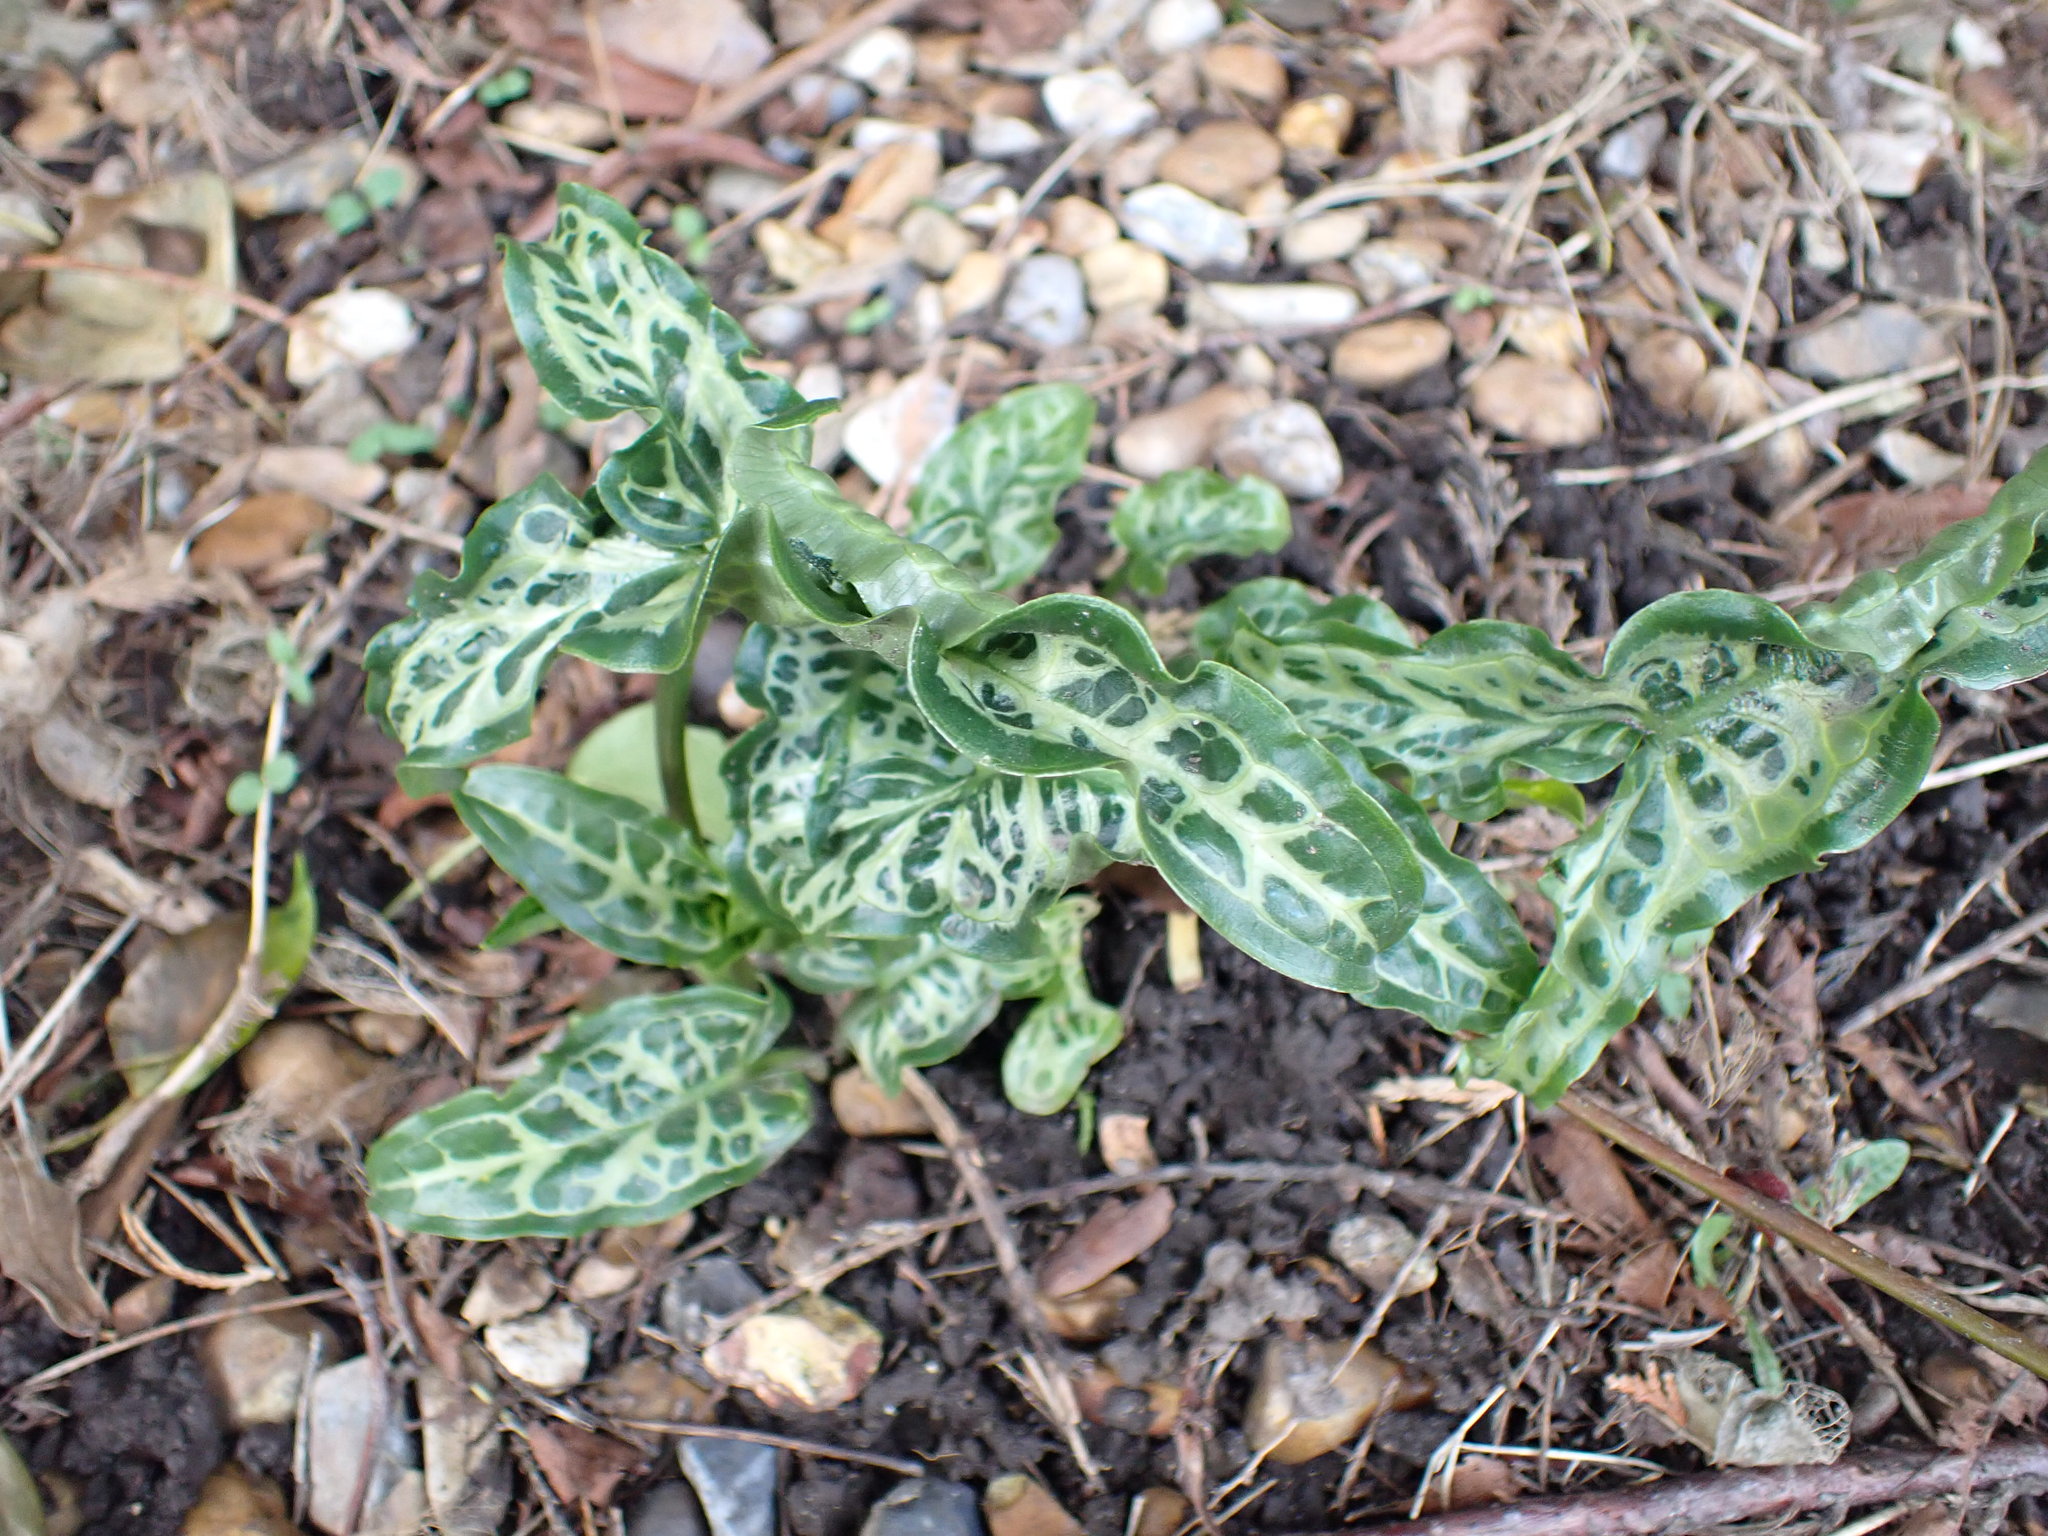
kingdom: Plantae
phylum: Tracheophyta
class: Liliopsida
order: Alismatales
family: Araceae
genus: Arum
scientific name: Arum italicum
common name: Italian lords-and-ladies
